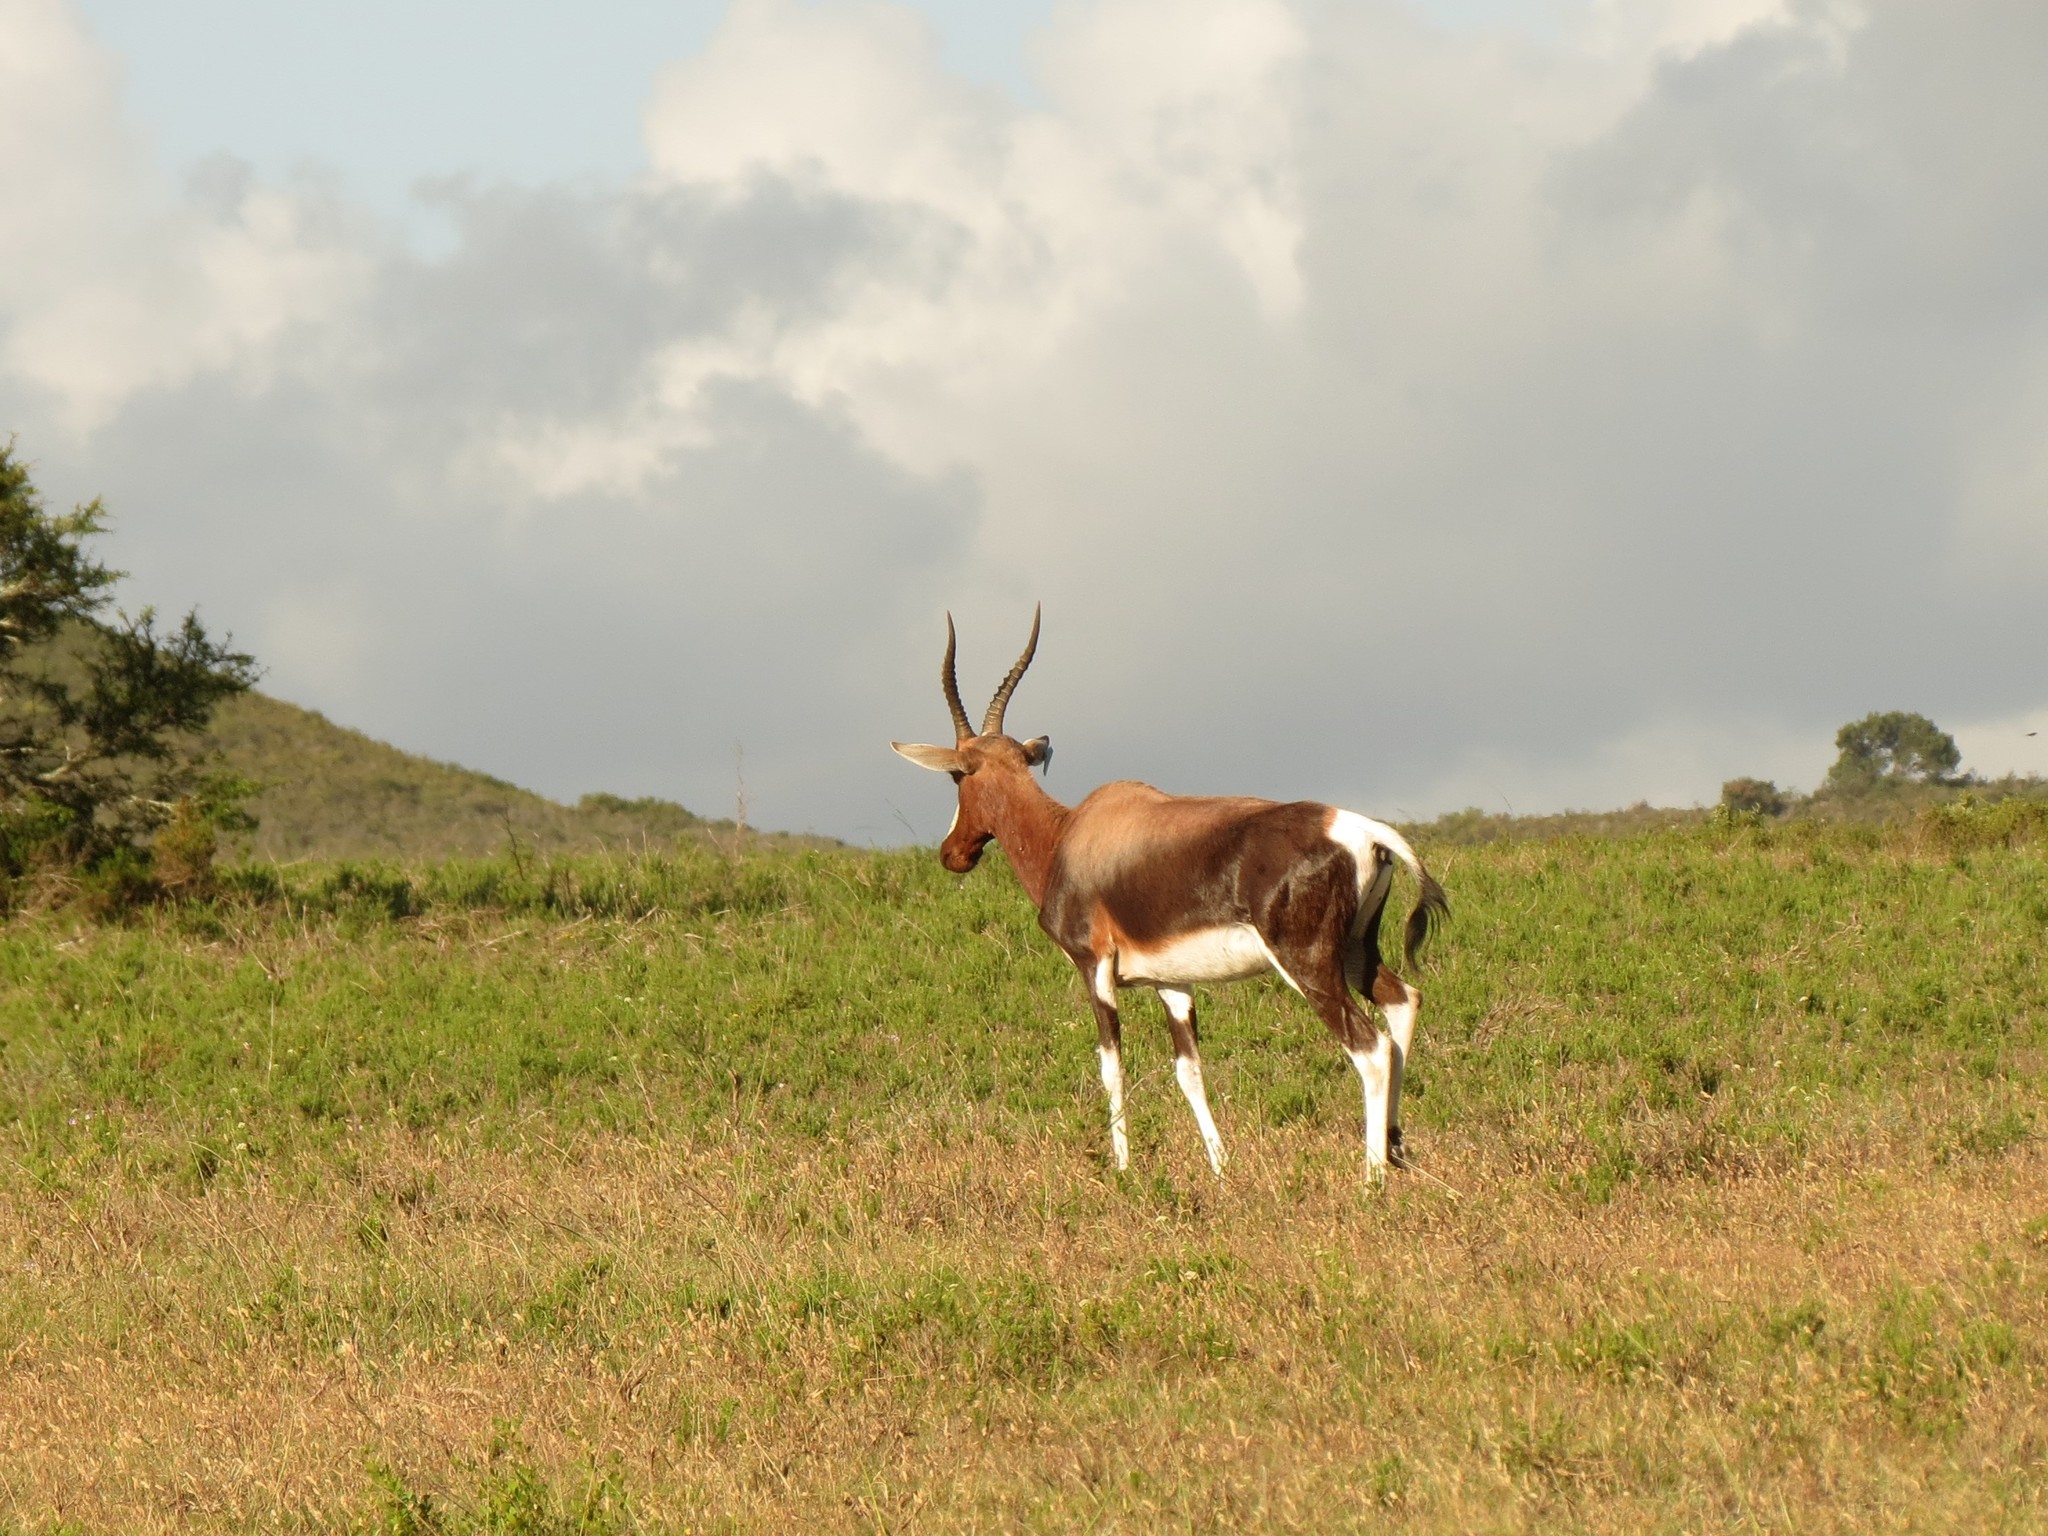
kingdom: Animalia
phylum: Chordata
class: Mammalia
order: Artiodactyla
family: Bovidae
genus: Damaliscus
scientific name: Damaliscus pygargus
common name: Bontebok
